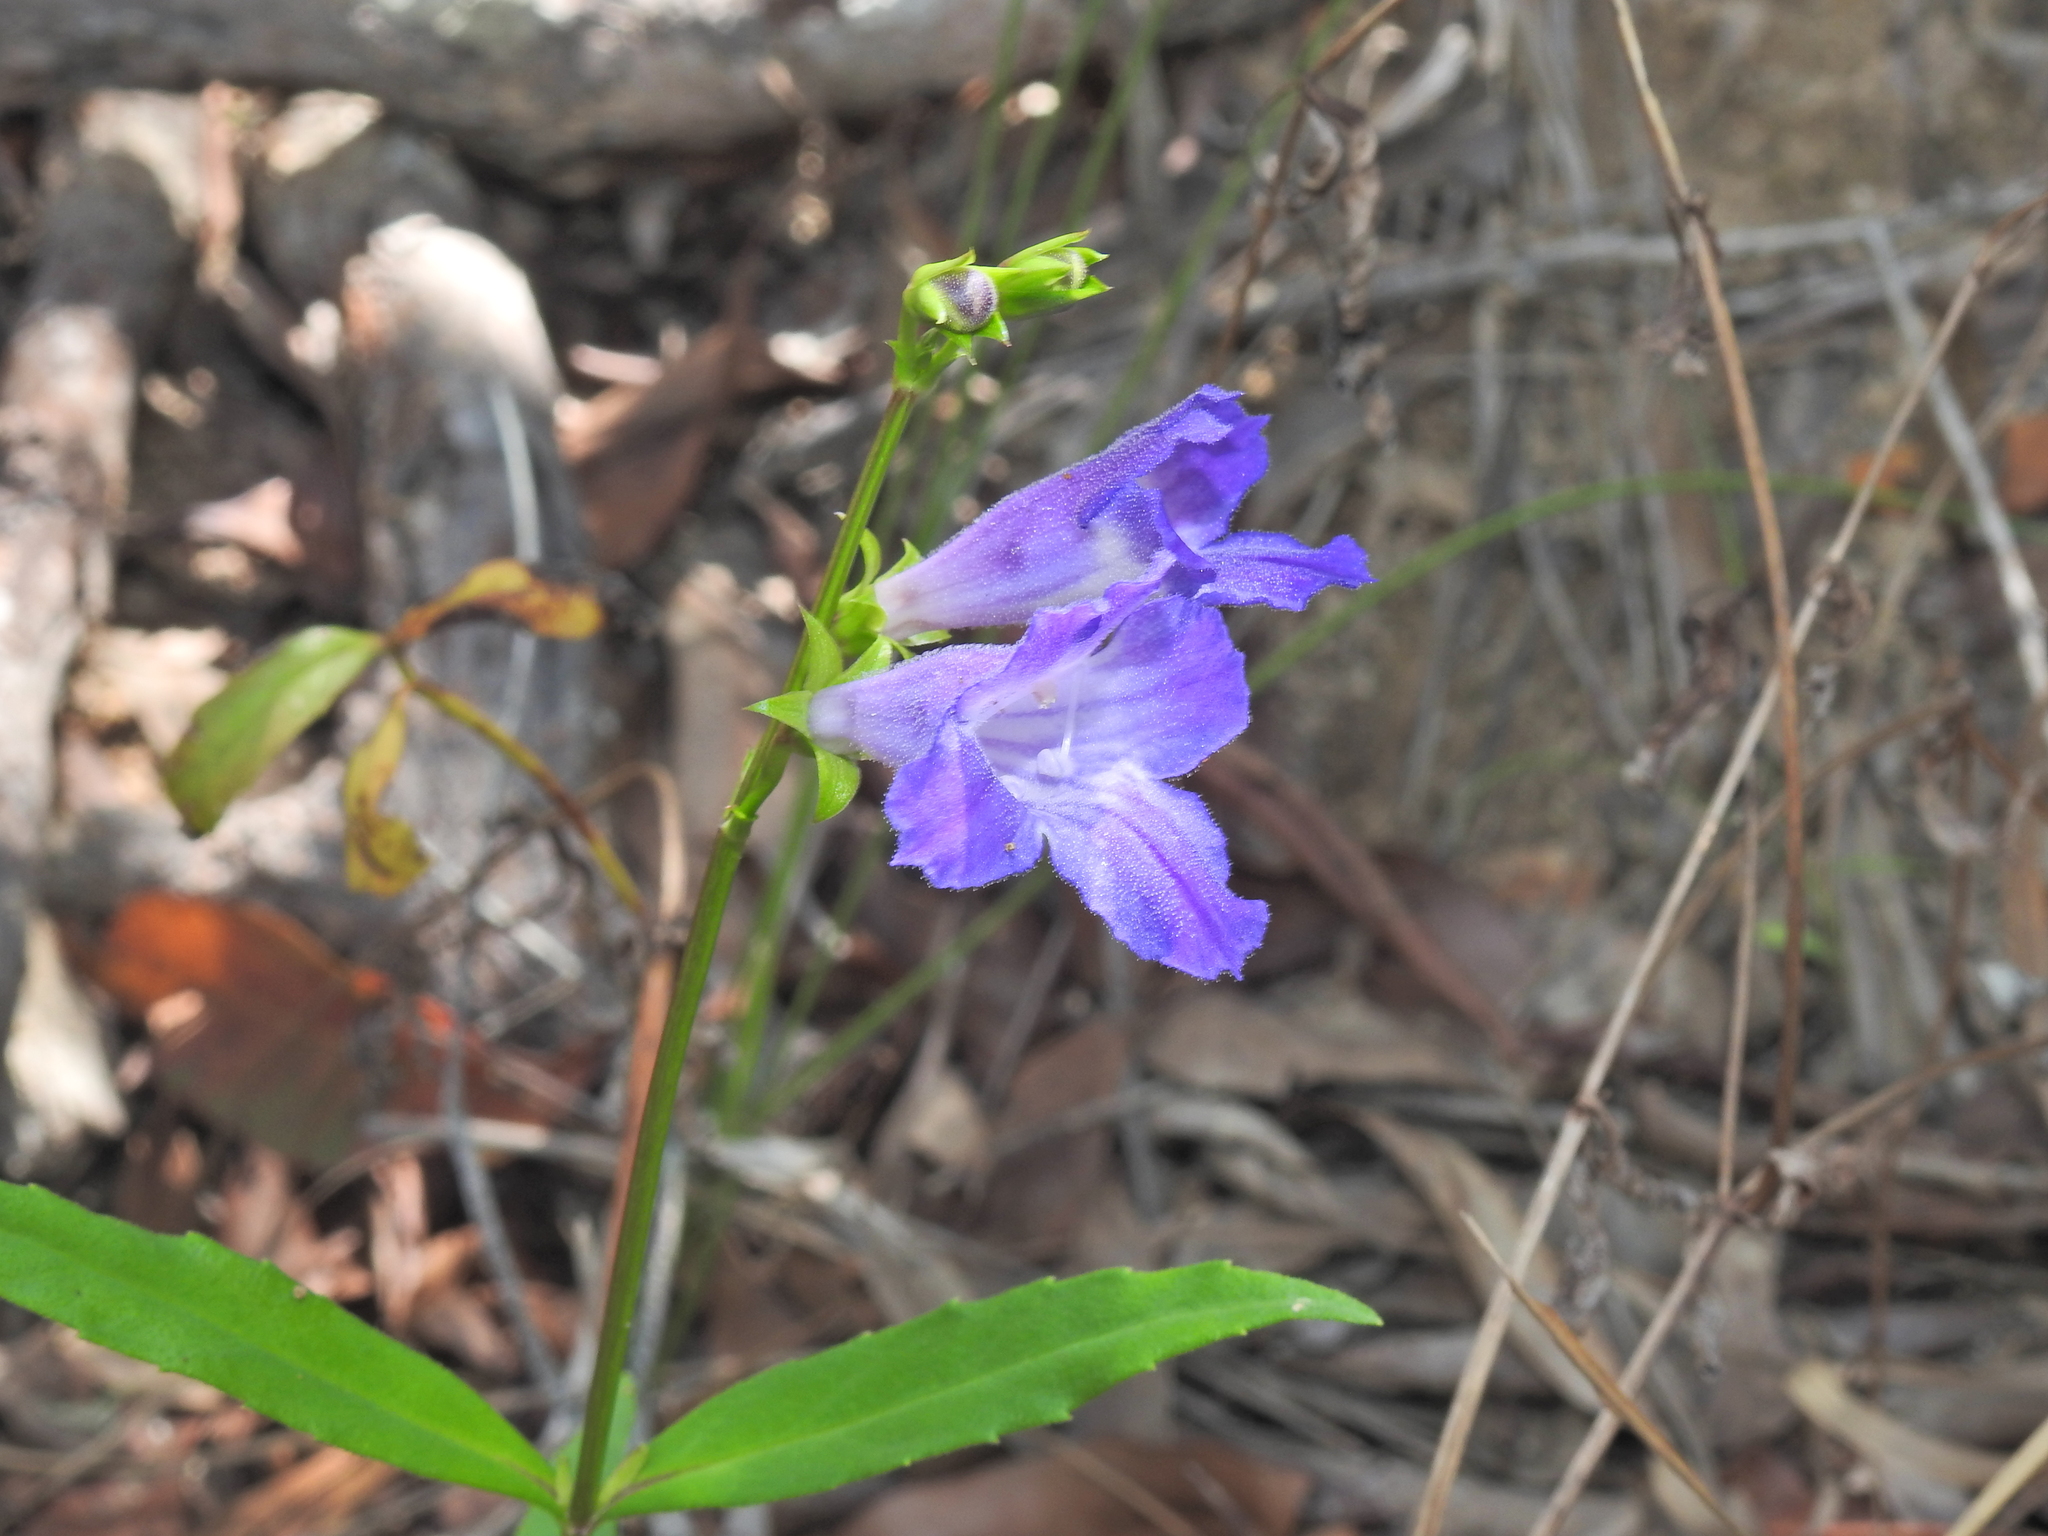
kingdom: Plantae
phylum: Tracheophyta
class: Magnoliopsida
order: Lamiales
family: Linderniaceae
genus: Artanema
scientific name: Artanema fimbriatum
